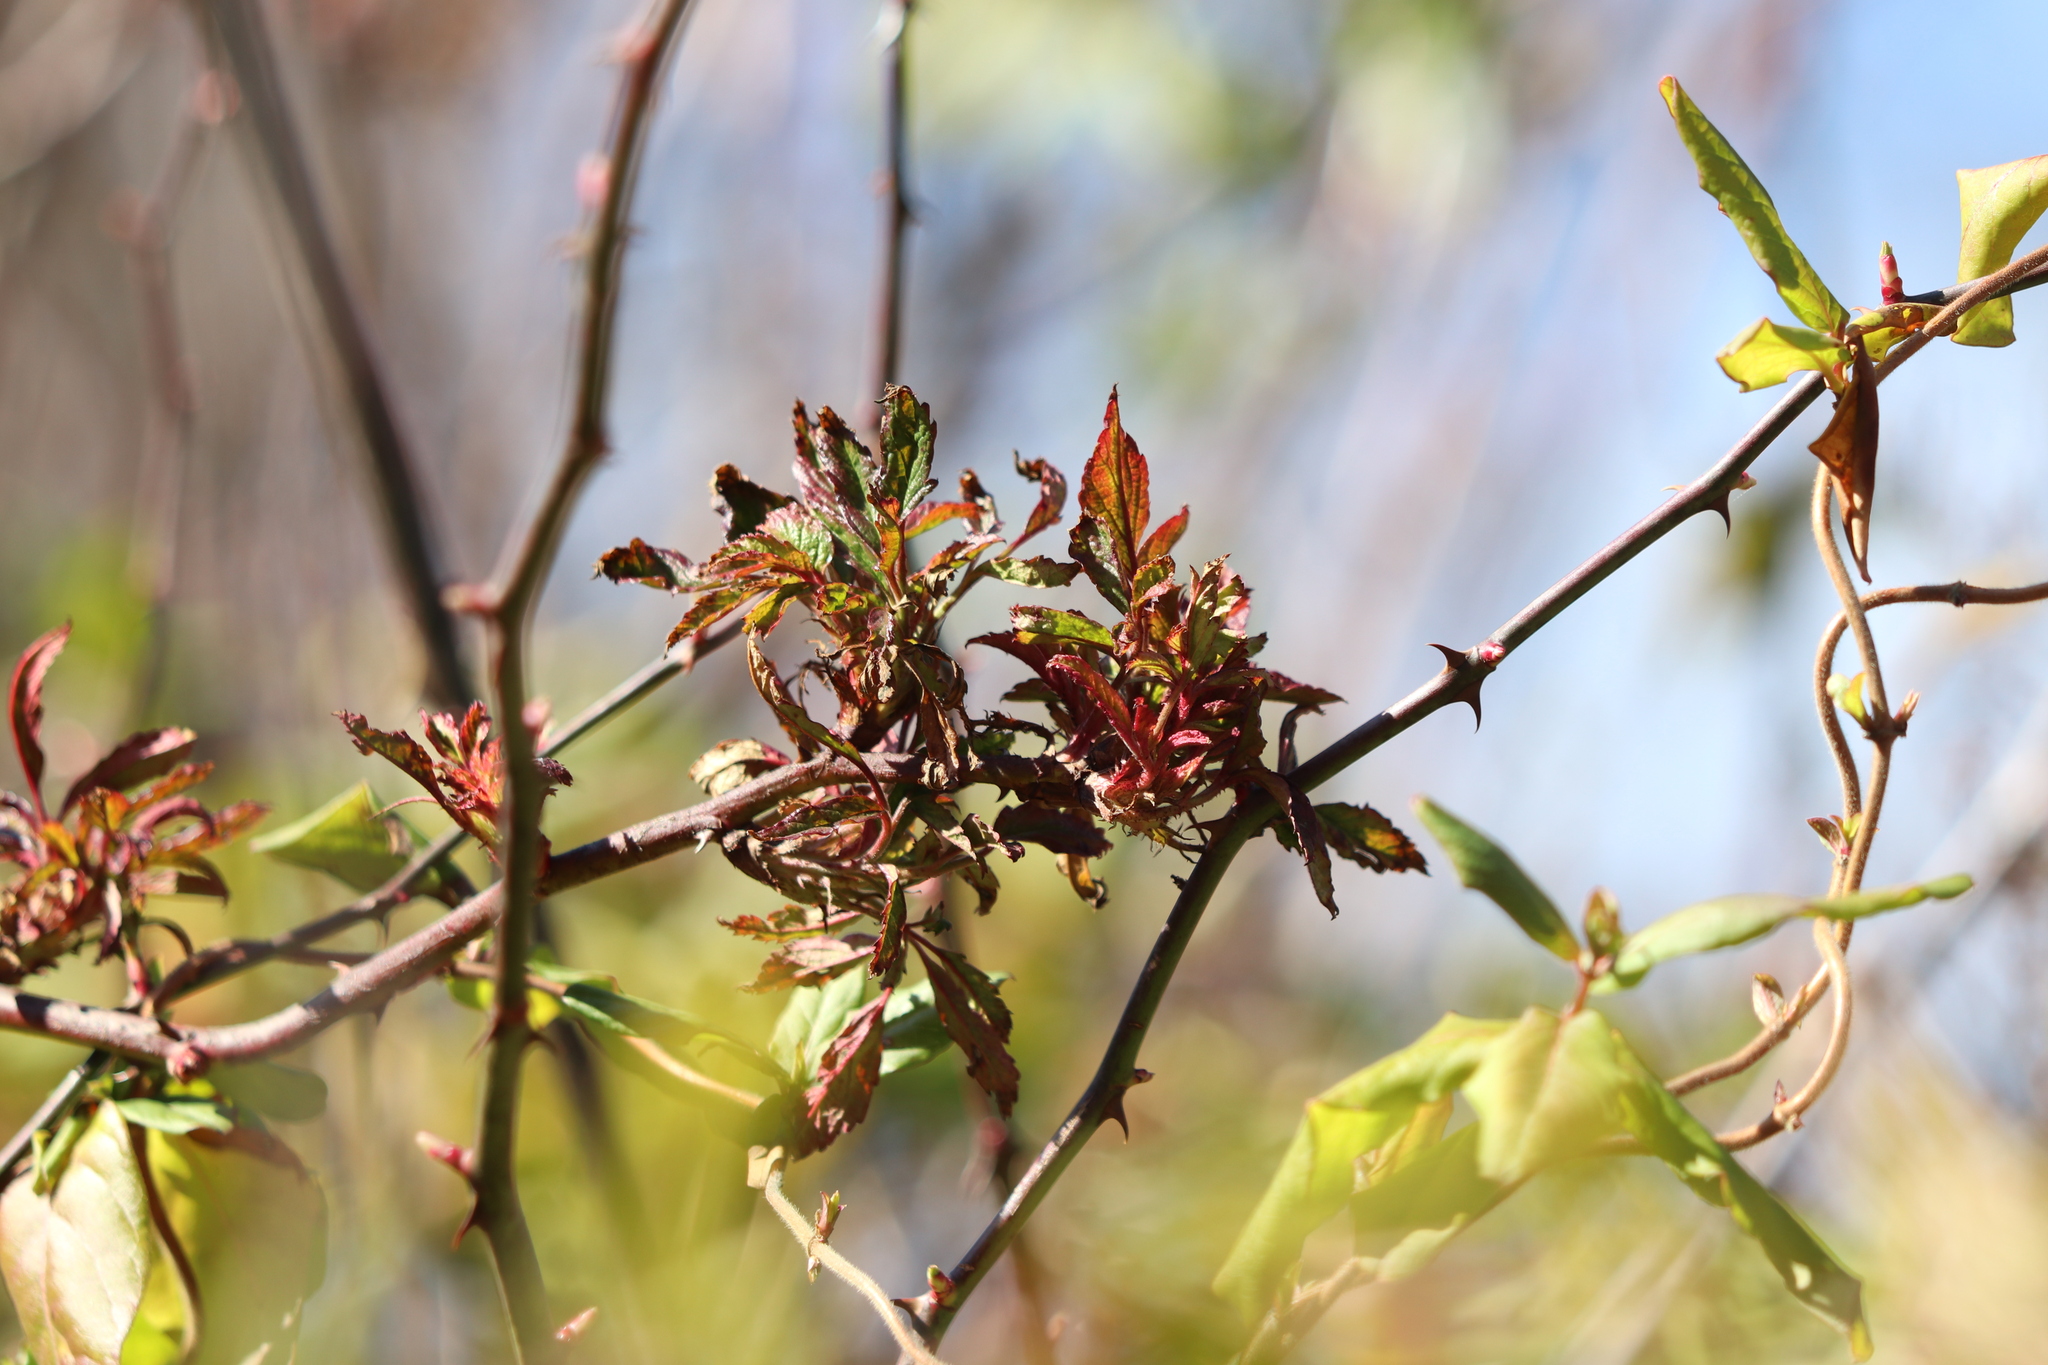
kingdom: Viruses
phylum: Negarnaviricota
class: Ellioviricetes
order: Bunyavirales
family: Fimoviridae
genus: Emaravirus
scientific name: Emaravirus rosae
